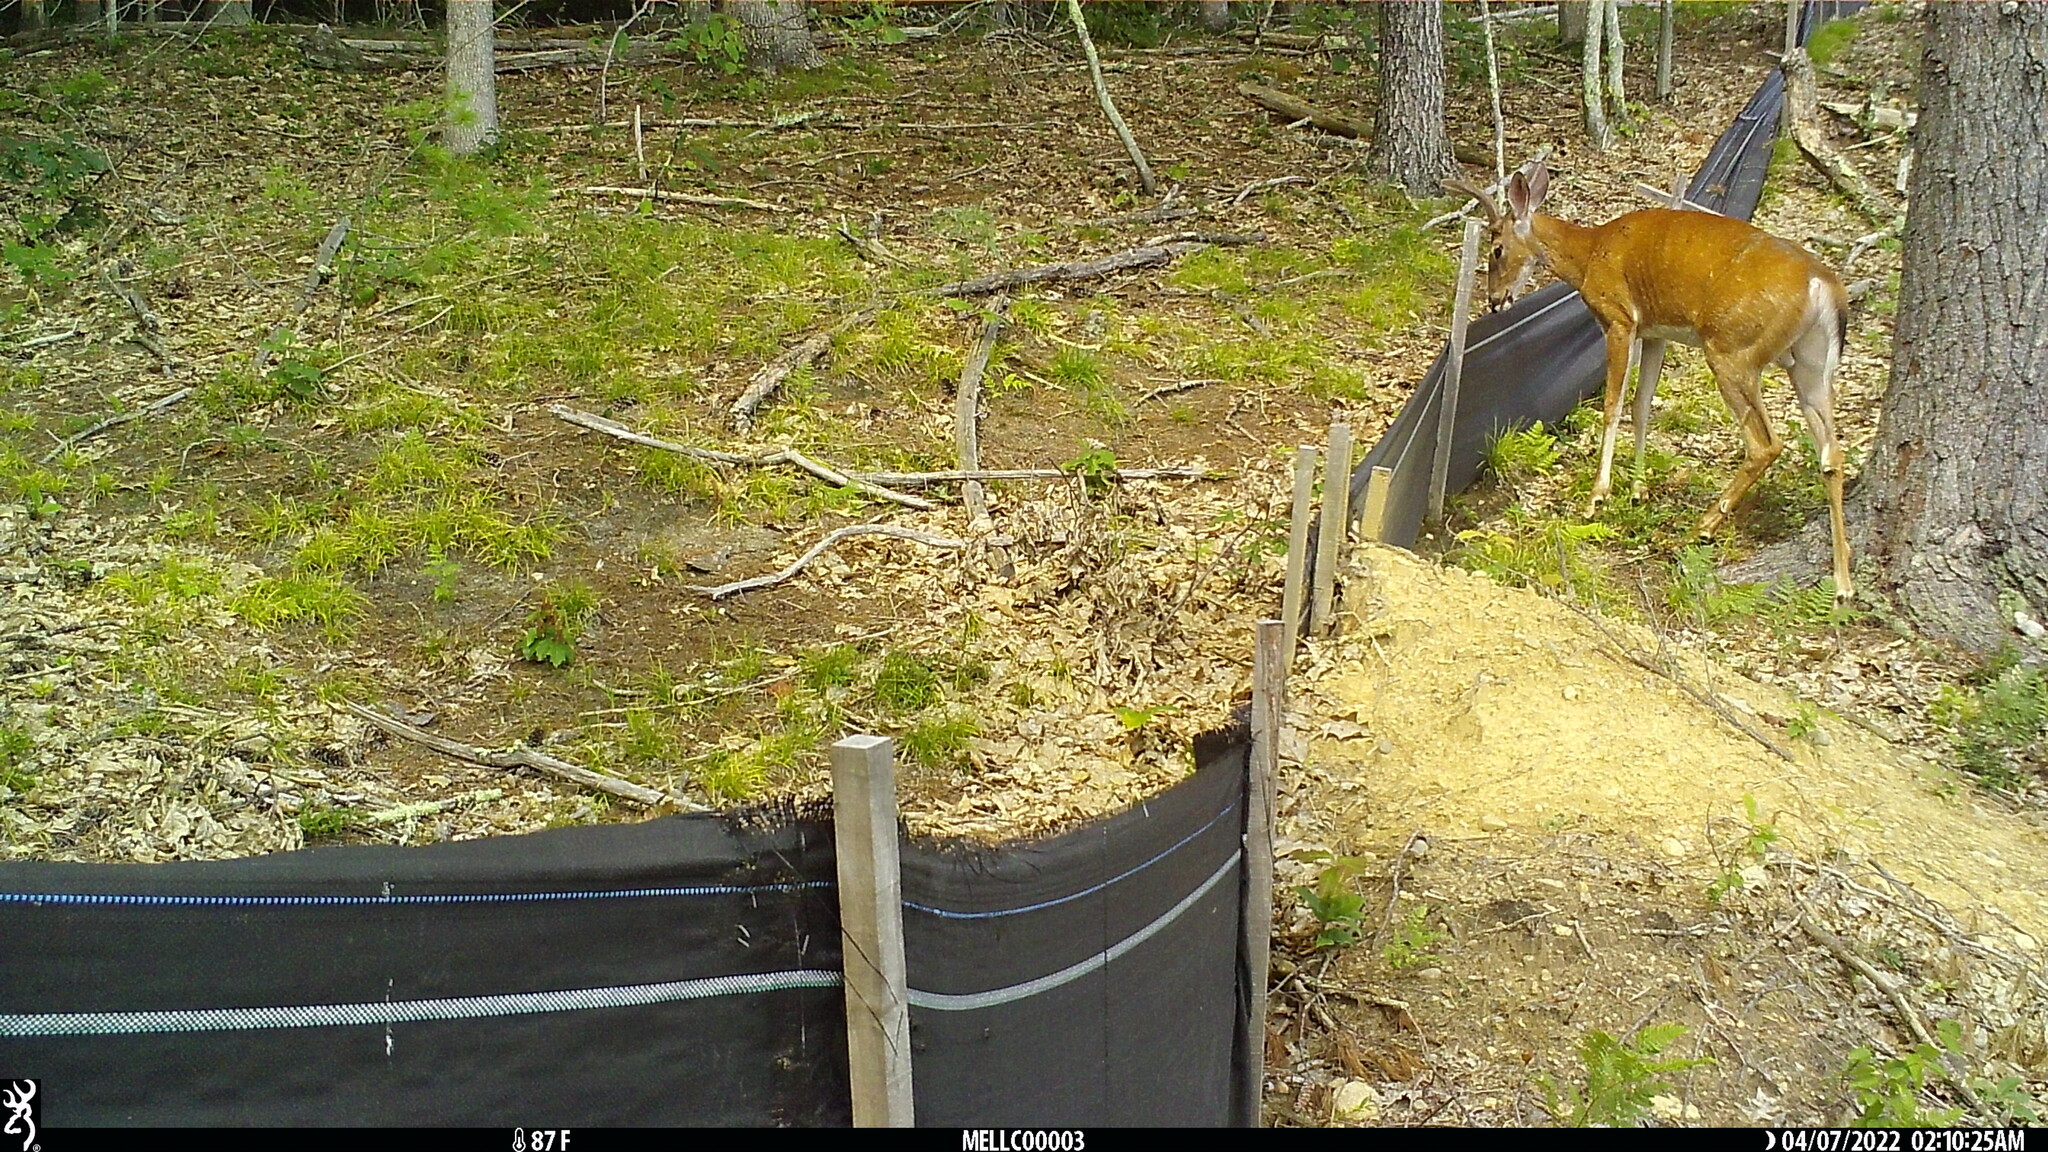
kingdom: Animalia
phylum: Chordata
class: Mammalia
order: Artiodactyla
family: Cervidae
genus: Odocoileus
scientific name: Odocoileus virginianus
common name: White-tailed deer
